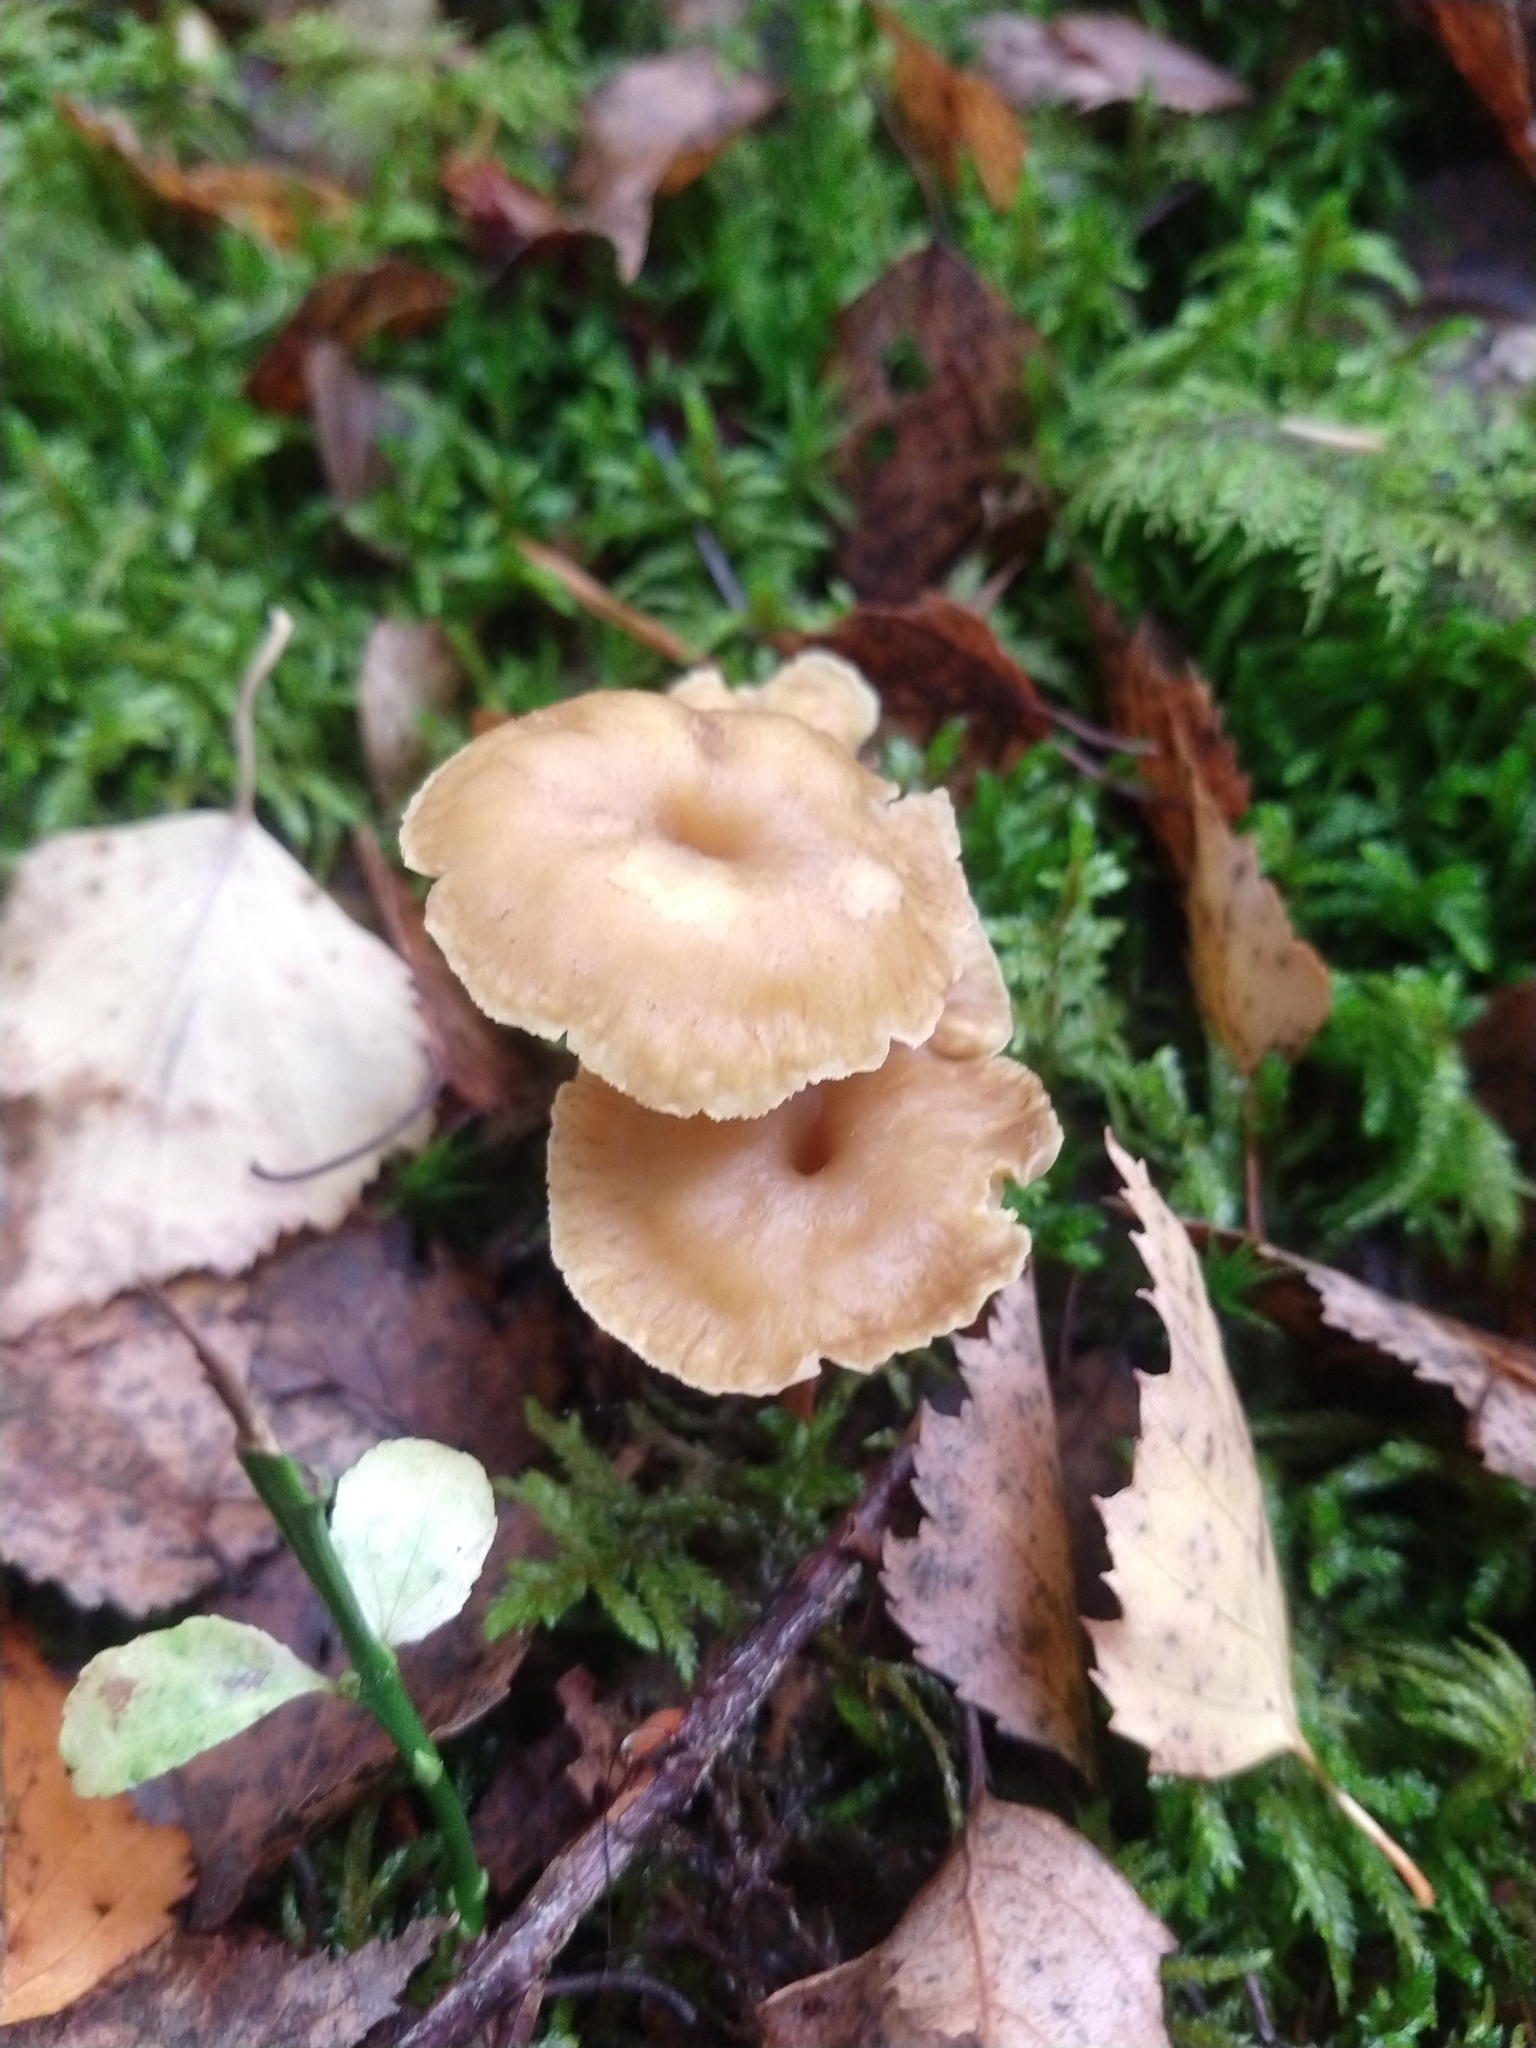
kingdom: Fungi
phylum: Basidiomycota
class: Agaricomycetes
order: Cantharellales
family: Hydnaceae
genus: Craterellus
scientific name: Craterellus tubaeformis
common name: Yellowfoot
